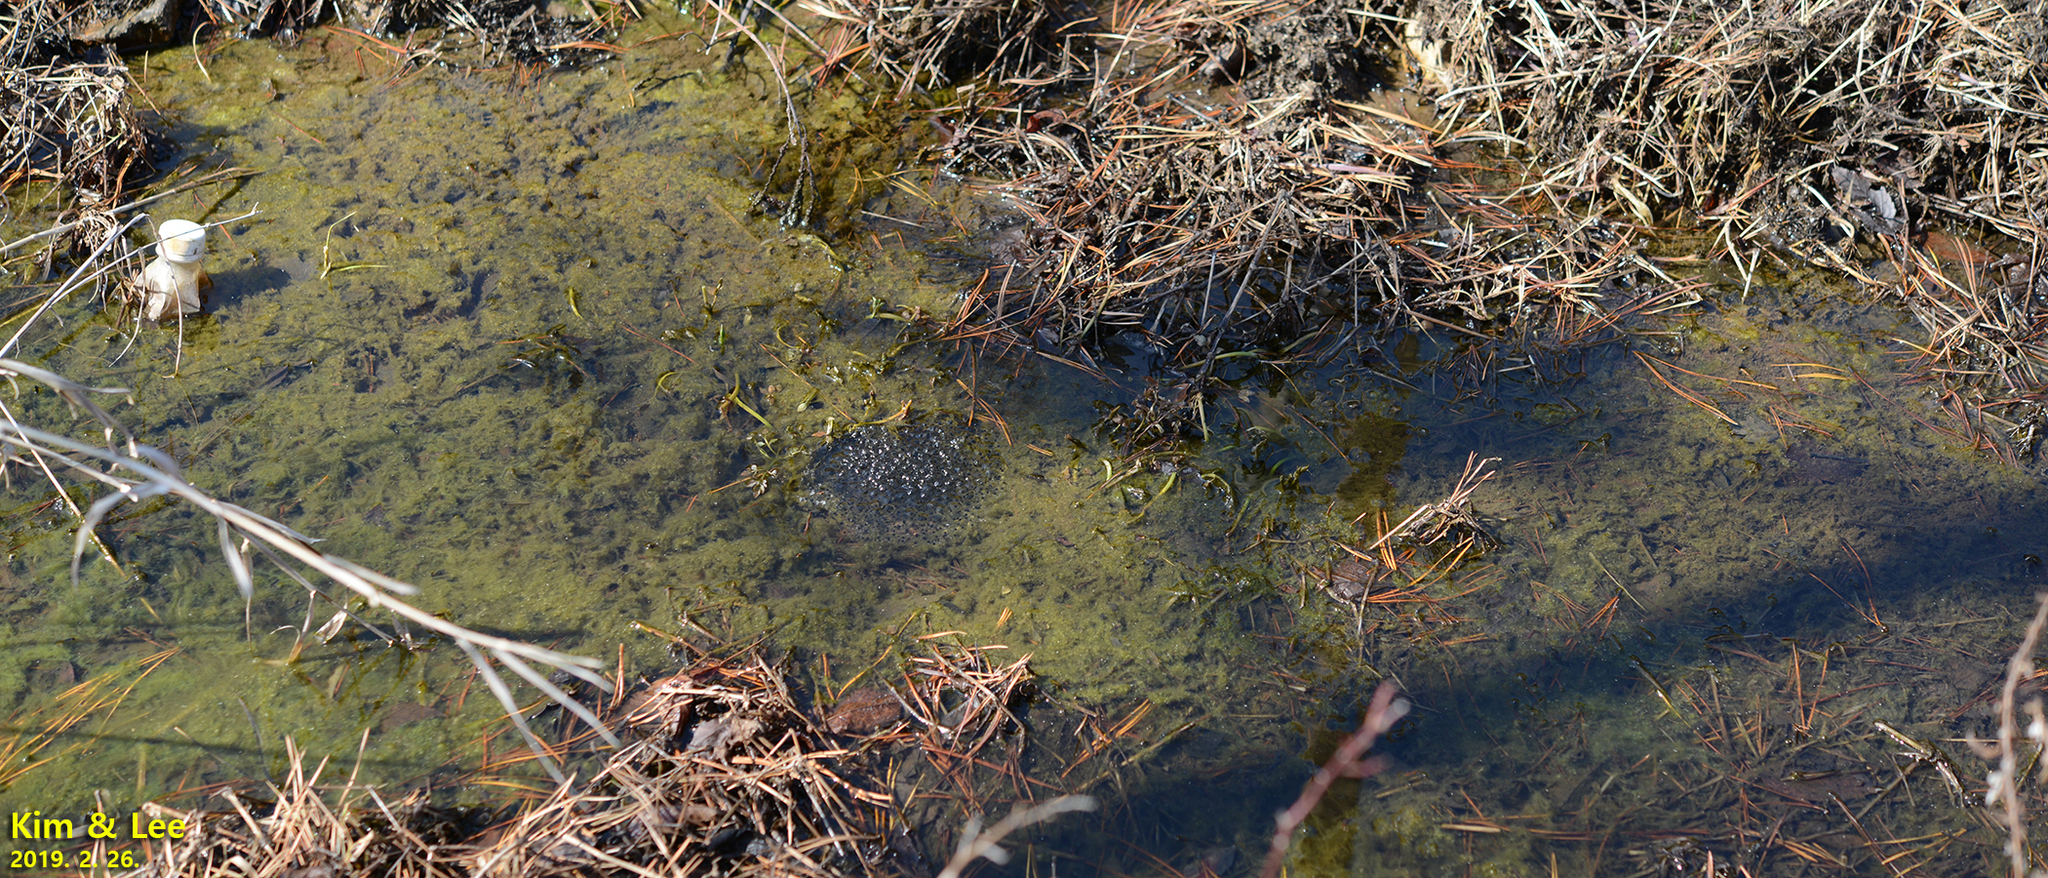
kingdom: Animalia
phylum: Chordata
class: Amphibia
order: Anura
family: Ranidae
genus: Rana
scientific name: Rana uenoi
